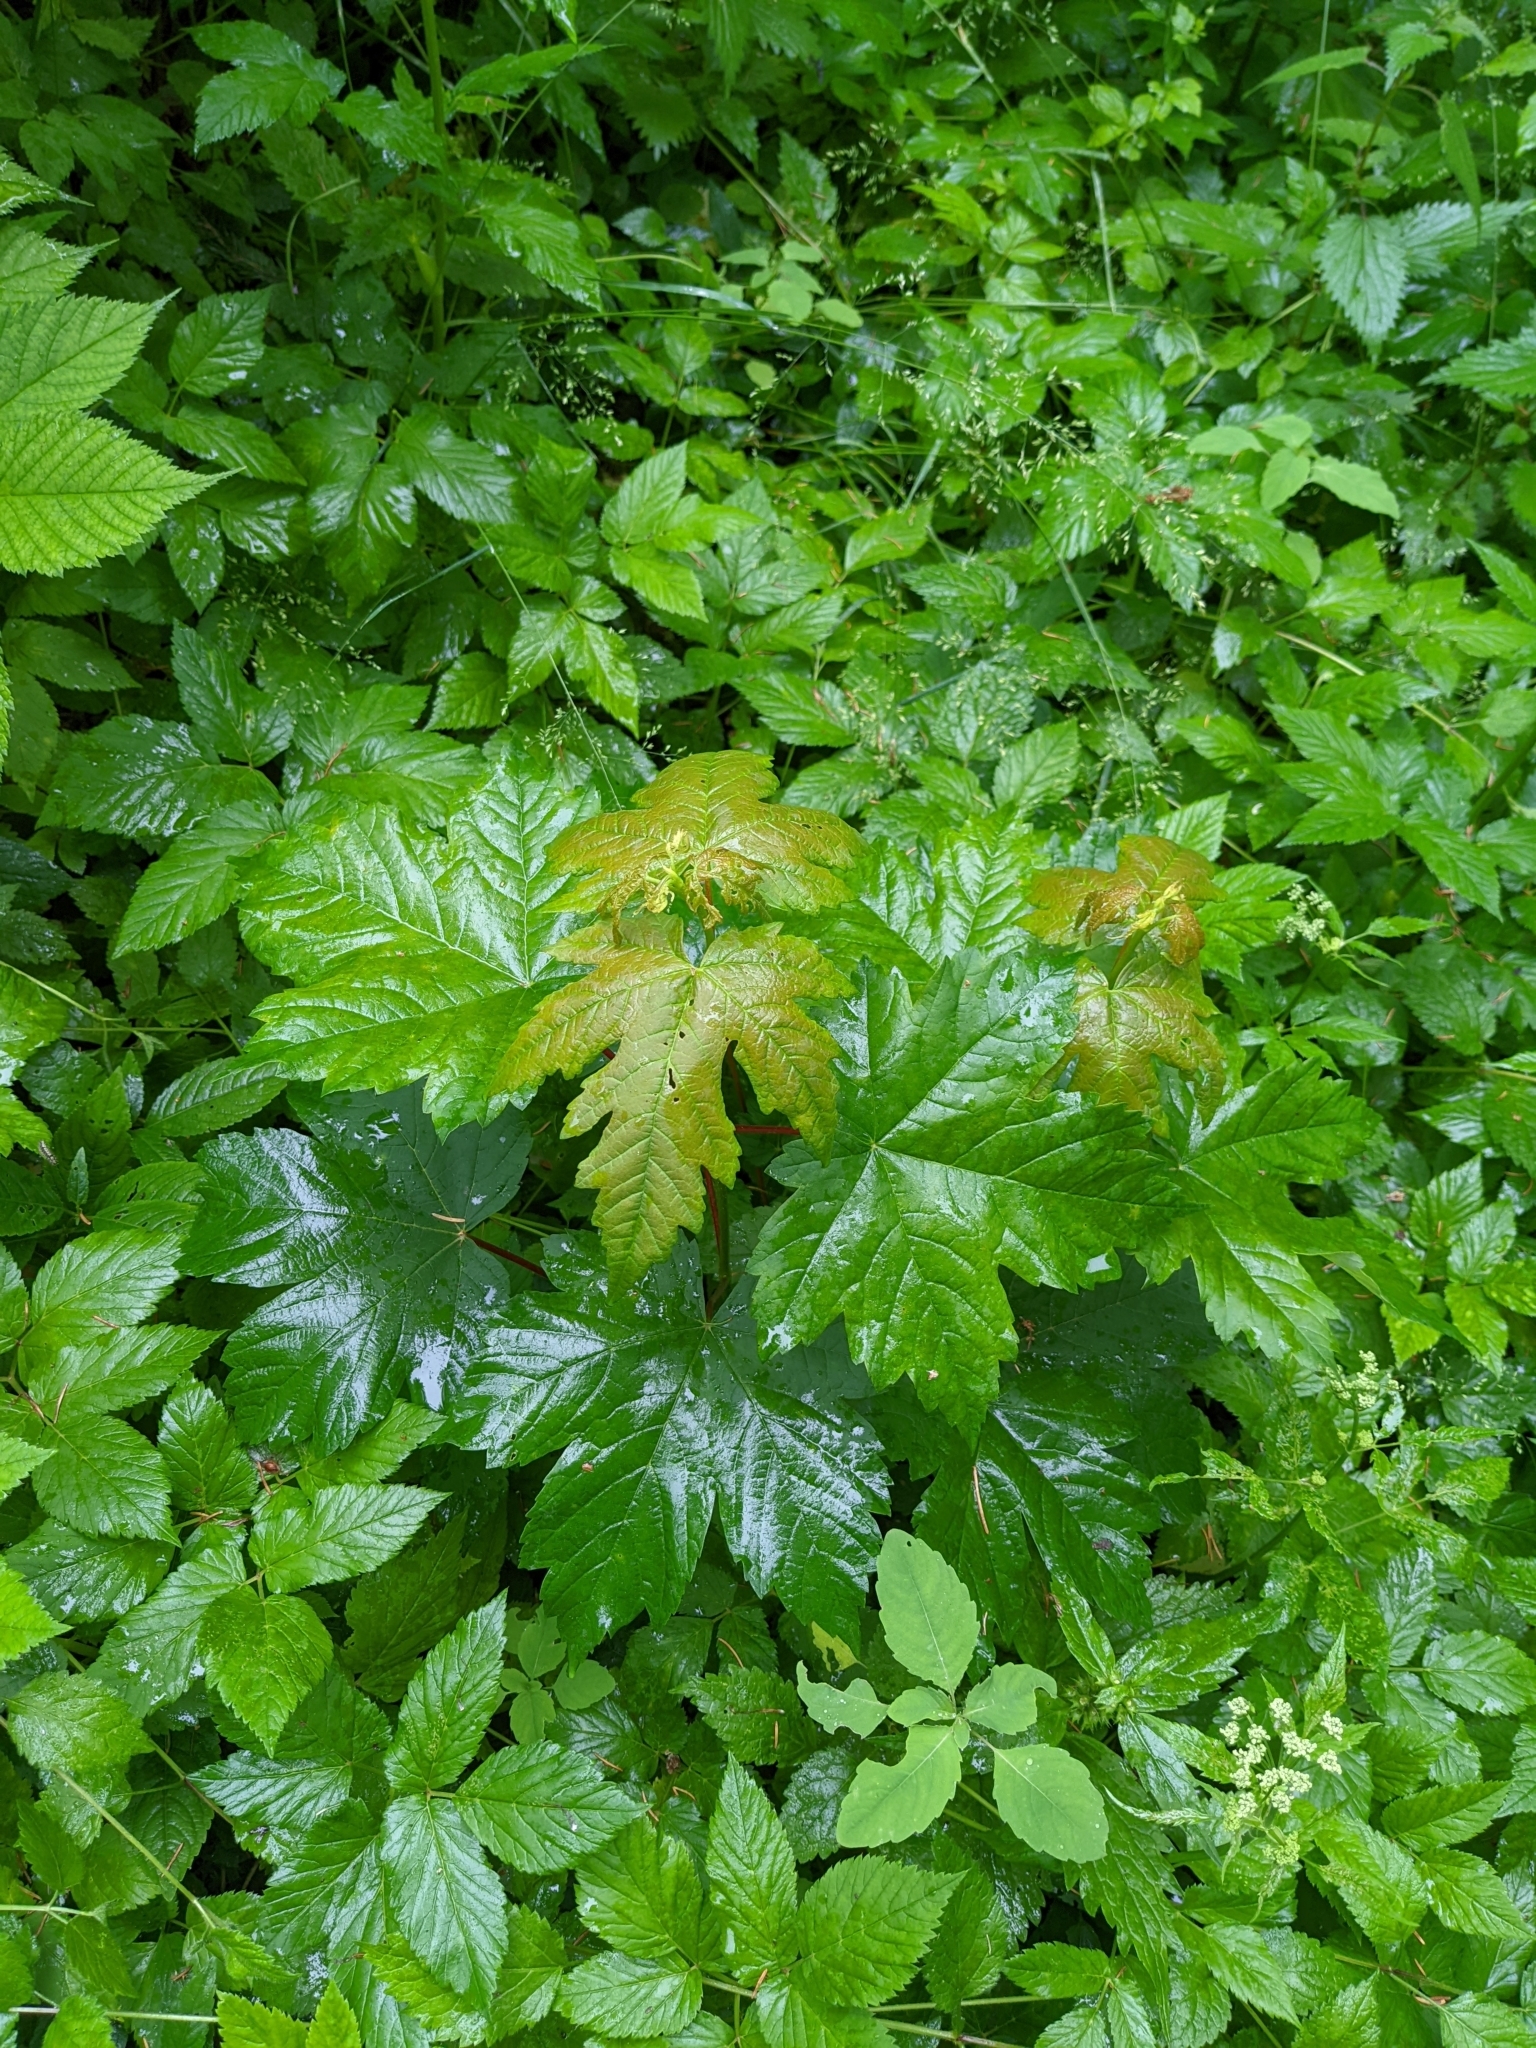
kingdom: Plantae
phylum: Tracheophyta
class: Magnoliopsida
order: Sapindales
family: Sapindaceae
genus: Acer
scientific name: Acer pseudoplatanus
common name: Sycamore
